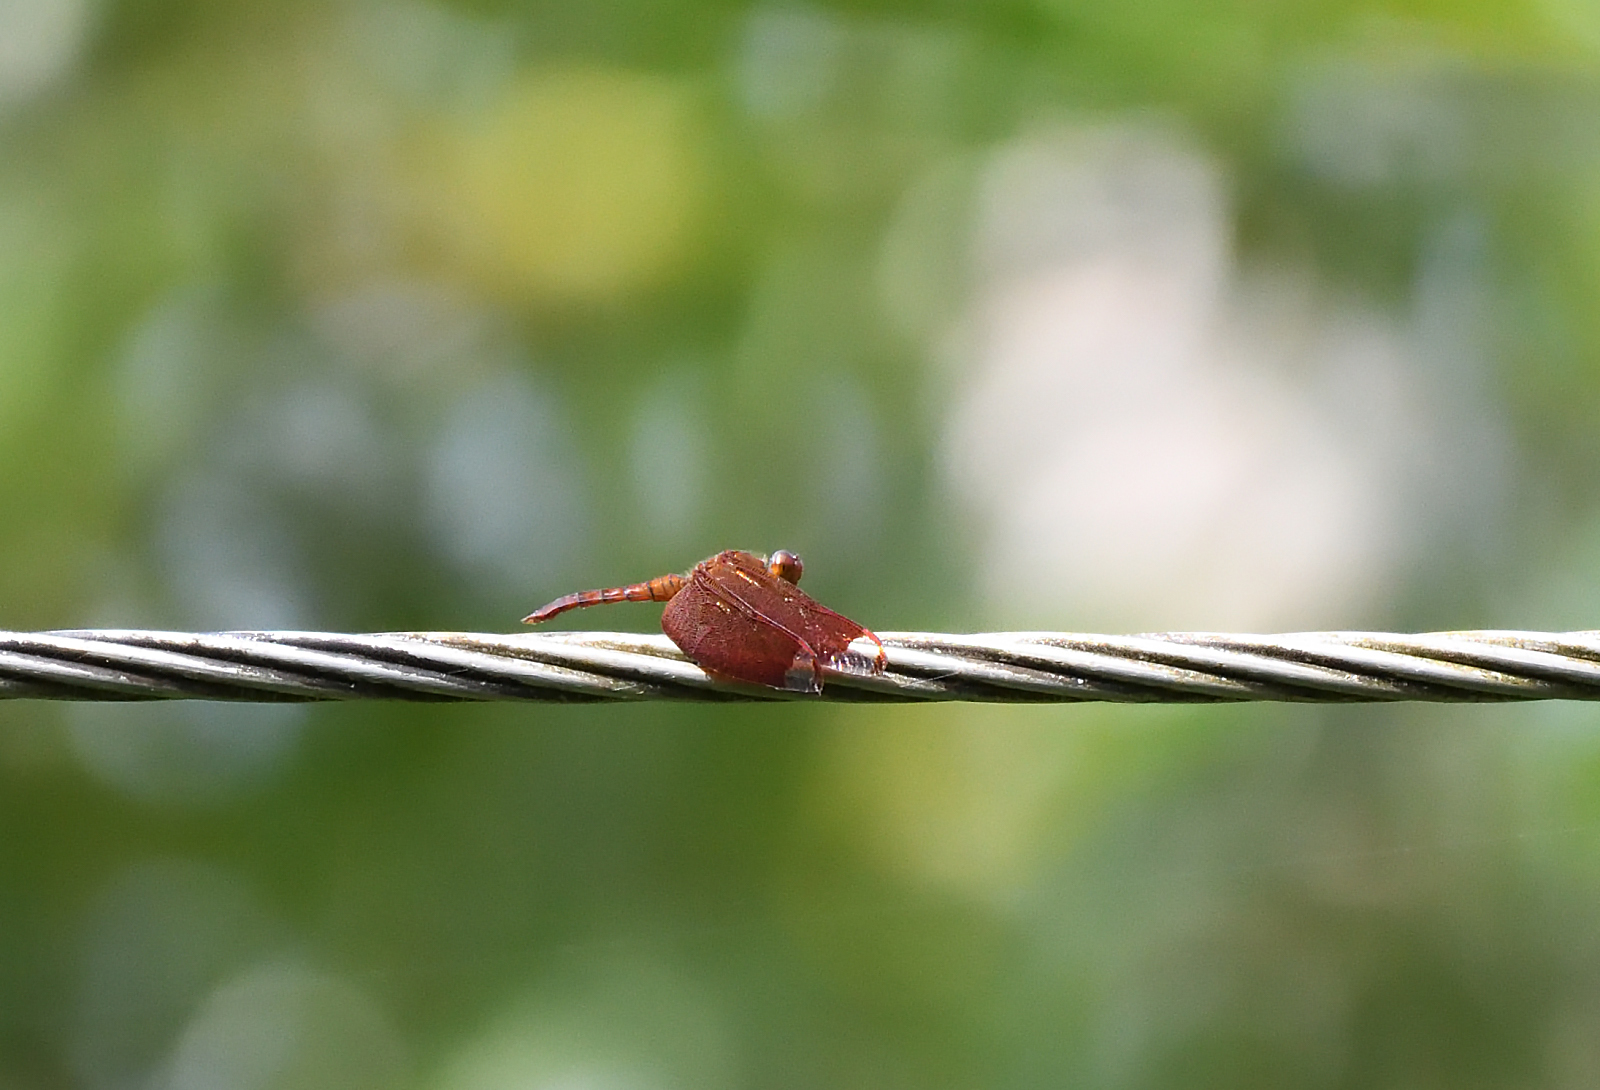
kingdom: Animalia
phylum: Arthropoda
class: Insecta
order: Odonata
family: Libellulidae
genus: Neurothemis
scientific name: Neurothemis fulvia
